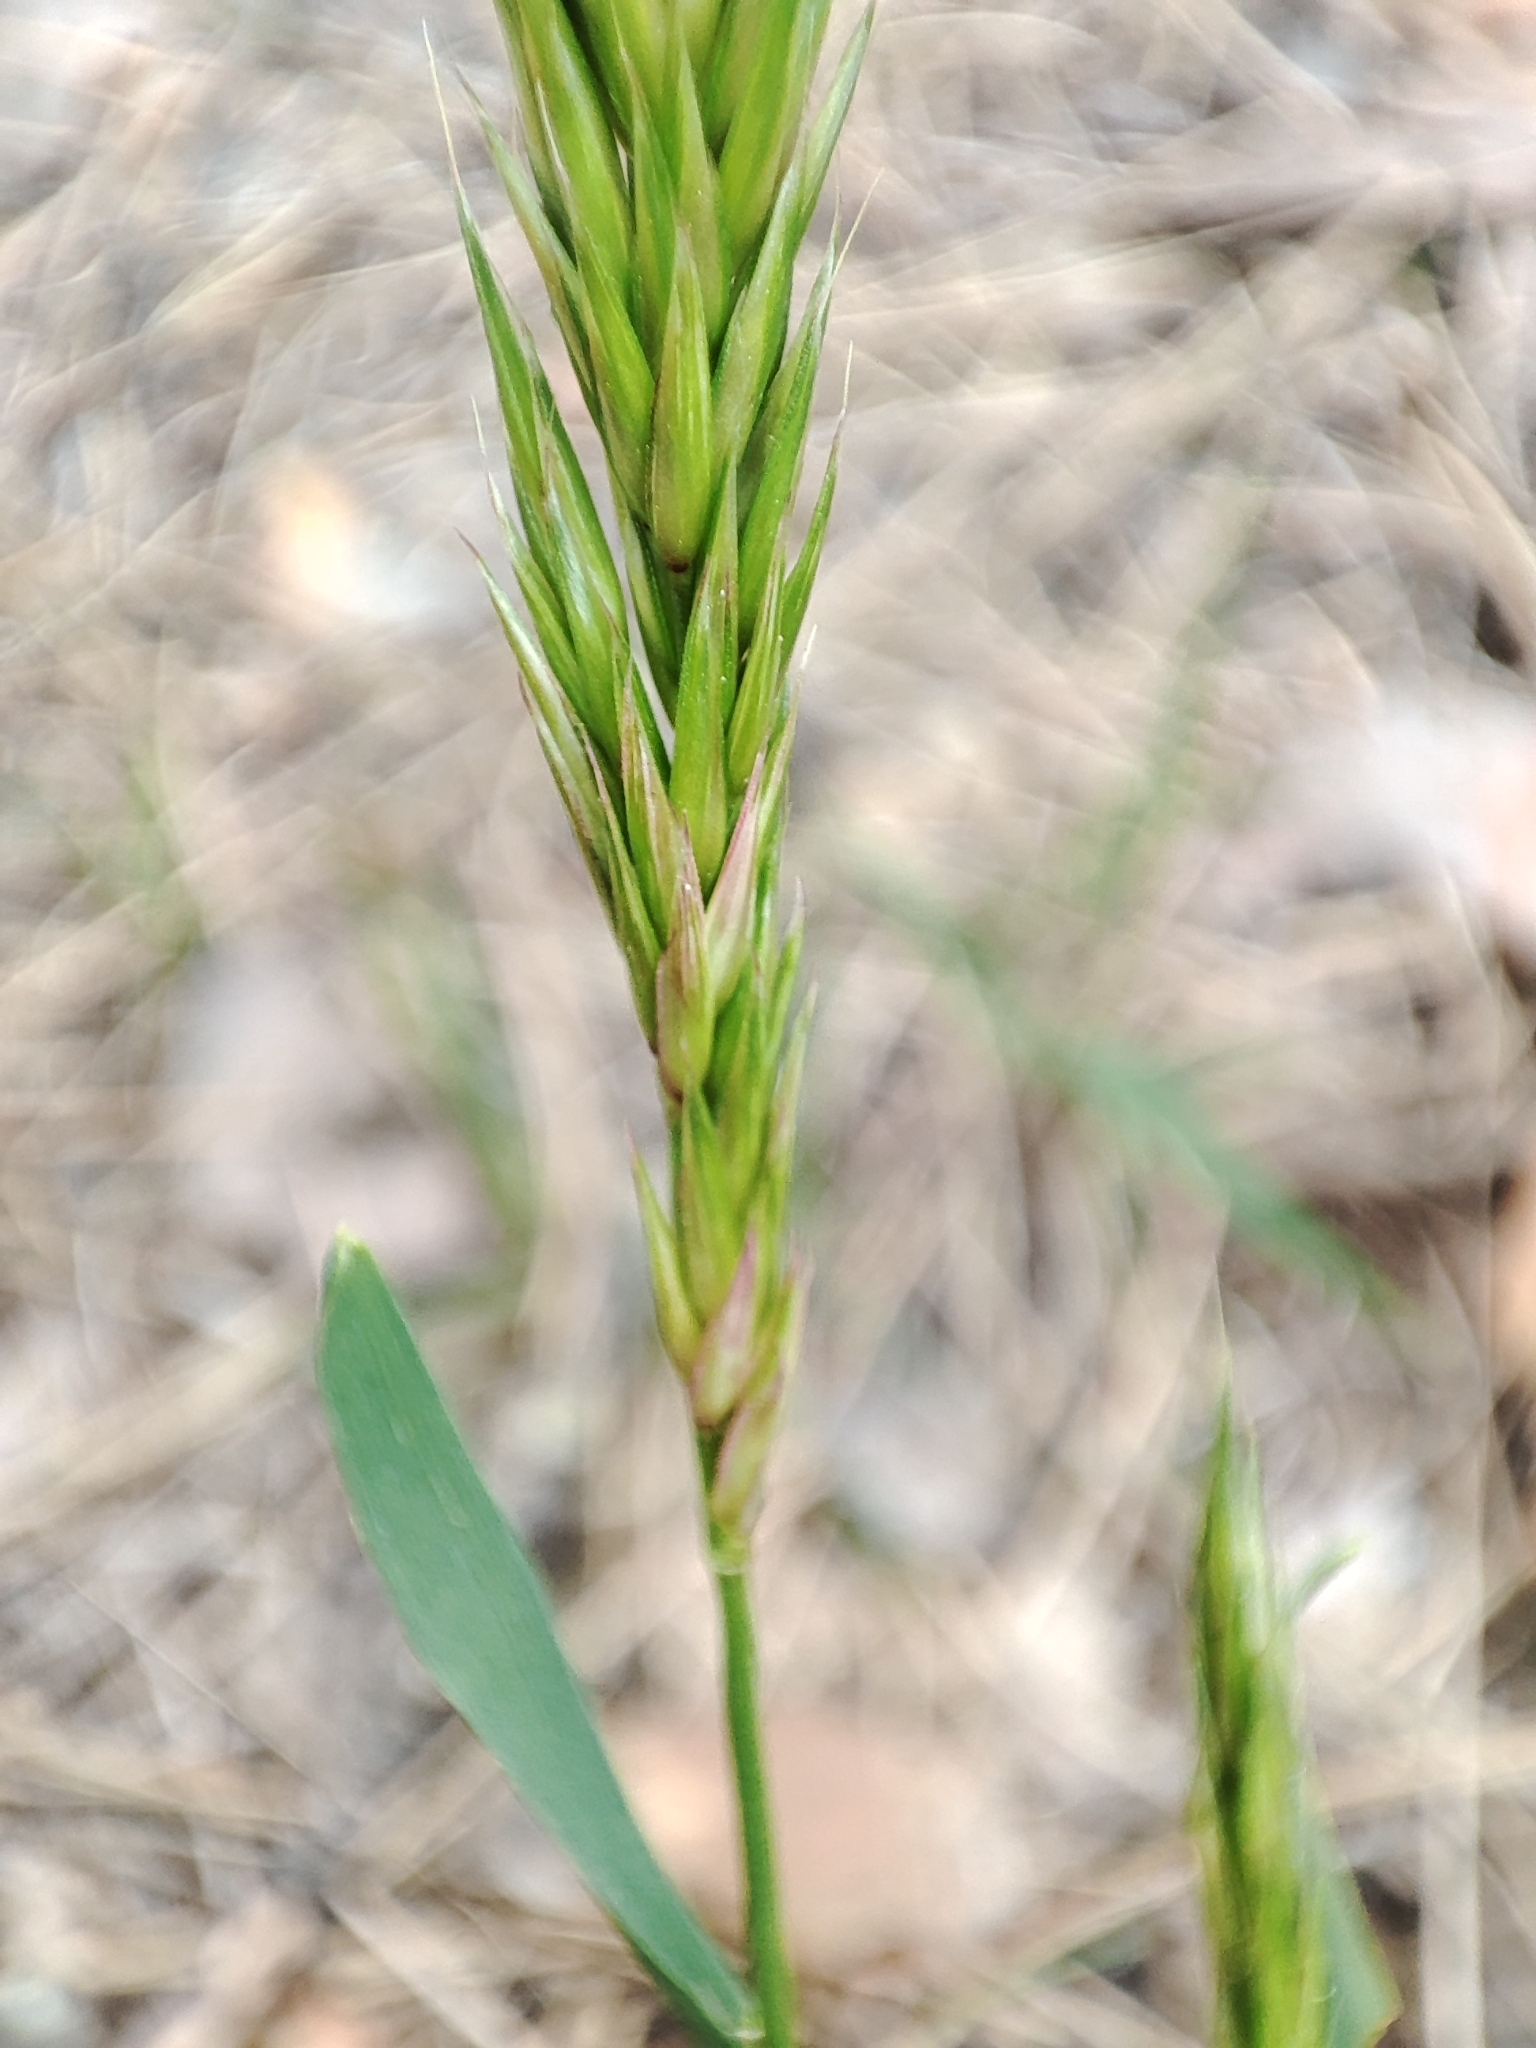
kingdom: Plantae
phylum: Tracheophyta
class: Liliopsida
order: Poales
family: Poaceae
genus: Anthoxanthum
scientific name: Anthoxanthum odoratum
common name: Sweet vernalgrass
